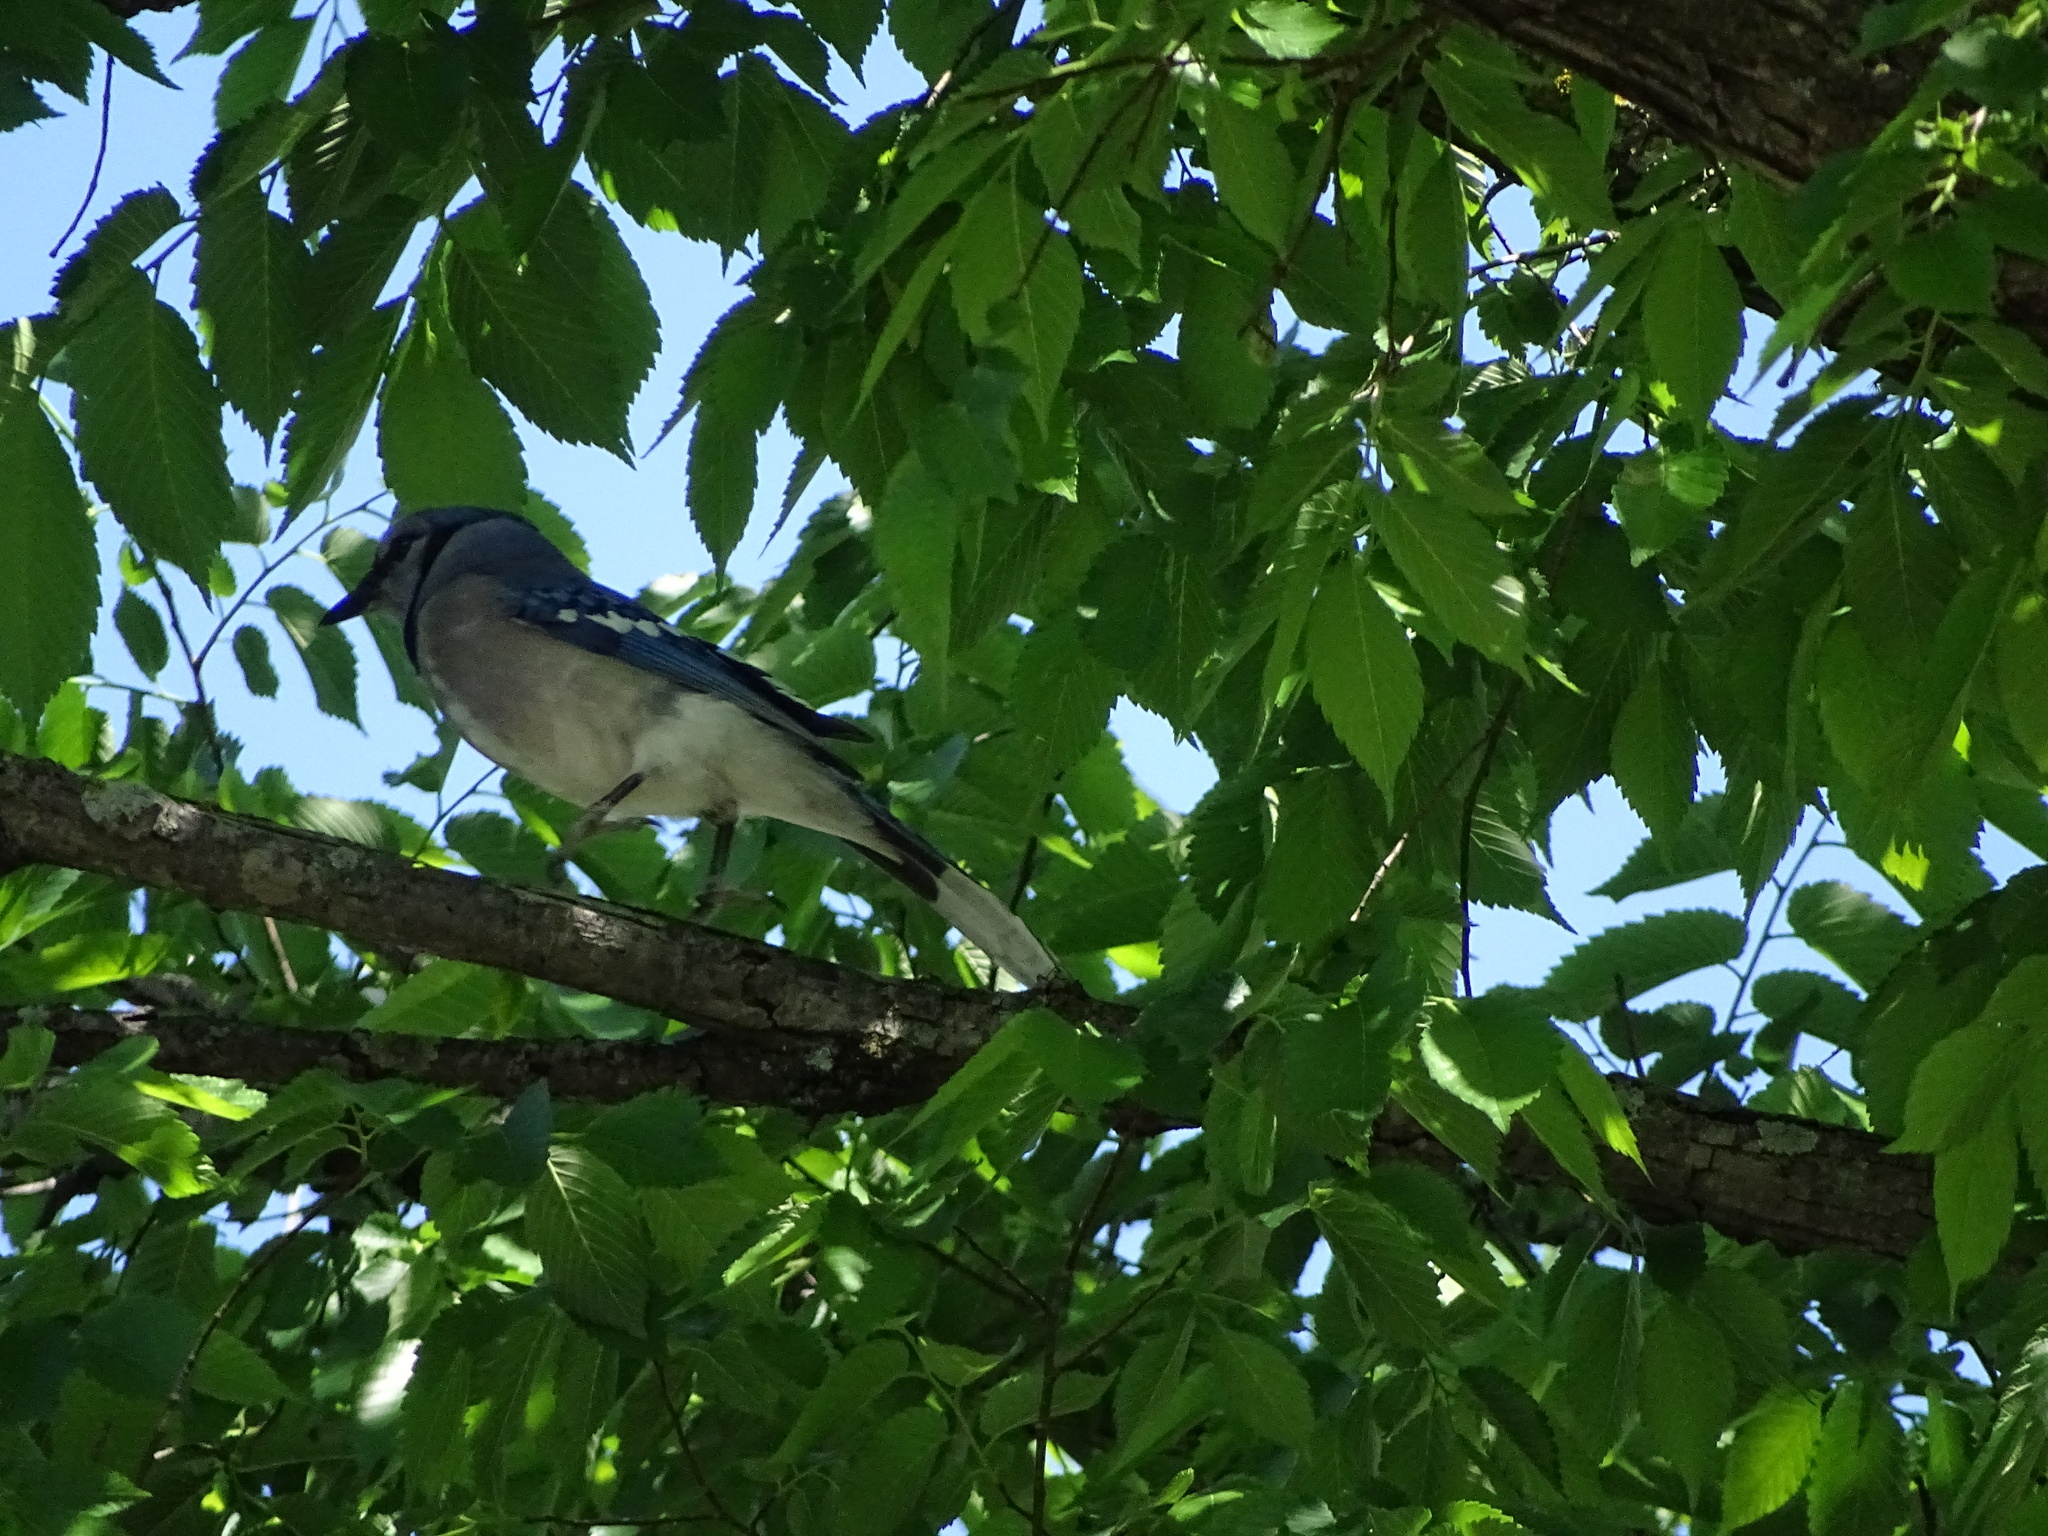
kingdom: Animalia
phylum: Chordata
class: Aves
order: Passeriformes
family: Corvidae
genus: Cyanocitta
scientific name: Cyanocitta cristata
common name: Blue jay
